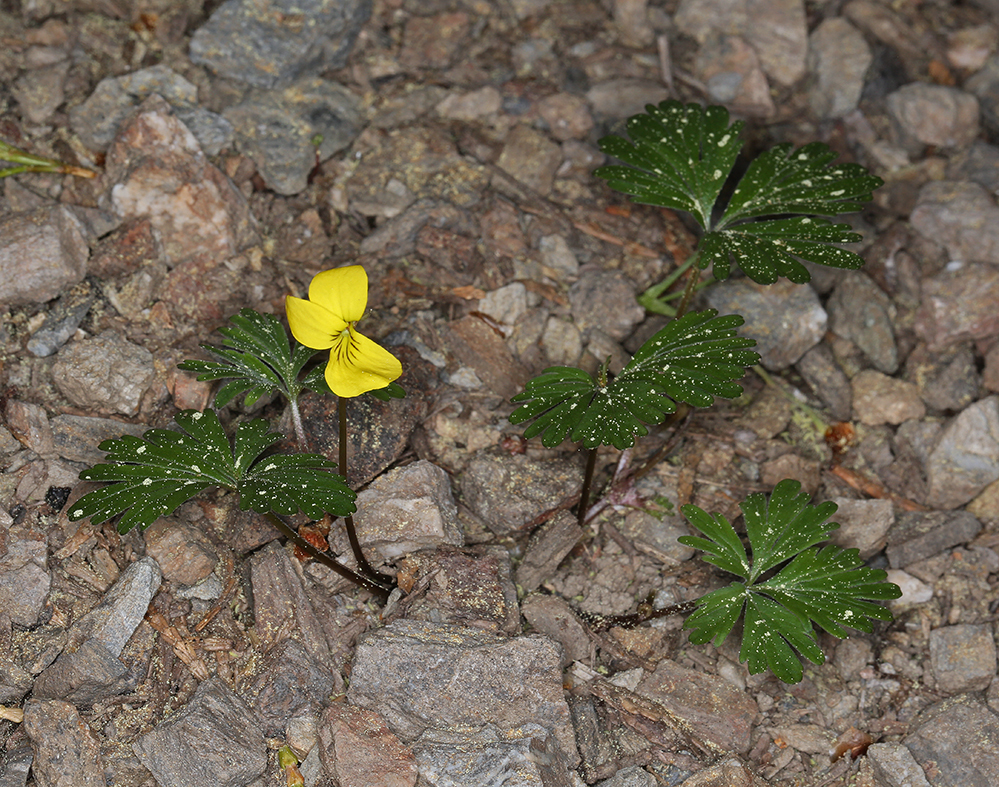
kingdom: Plantae
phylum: Tracheophyta
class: Magnoliopsida
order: Malpighiales
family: Violaceae
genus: Viola
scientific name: Viola sheltonii
